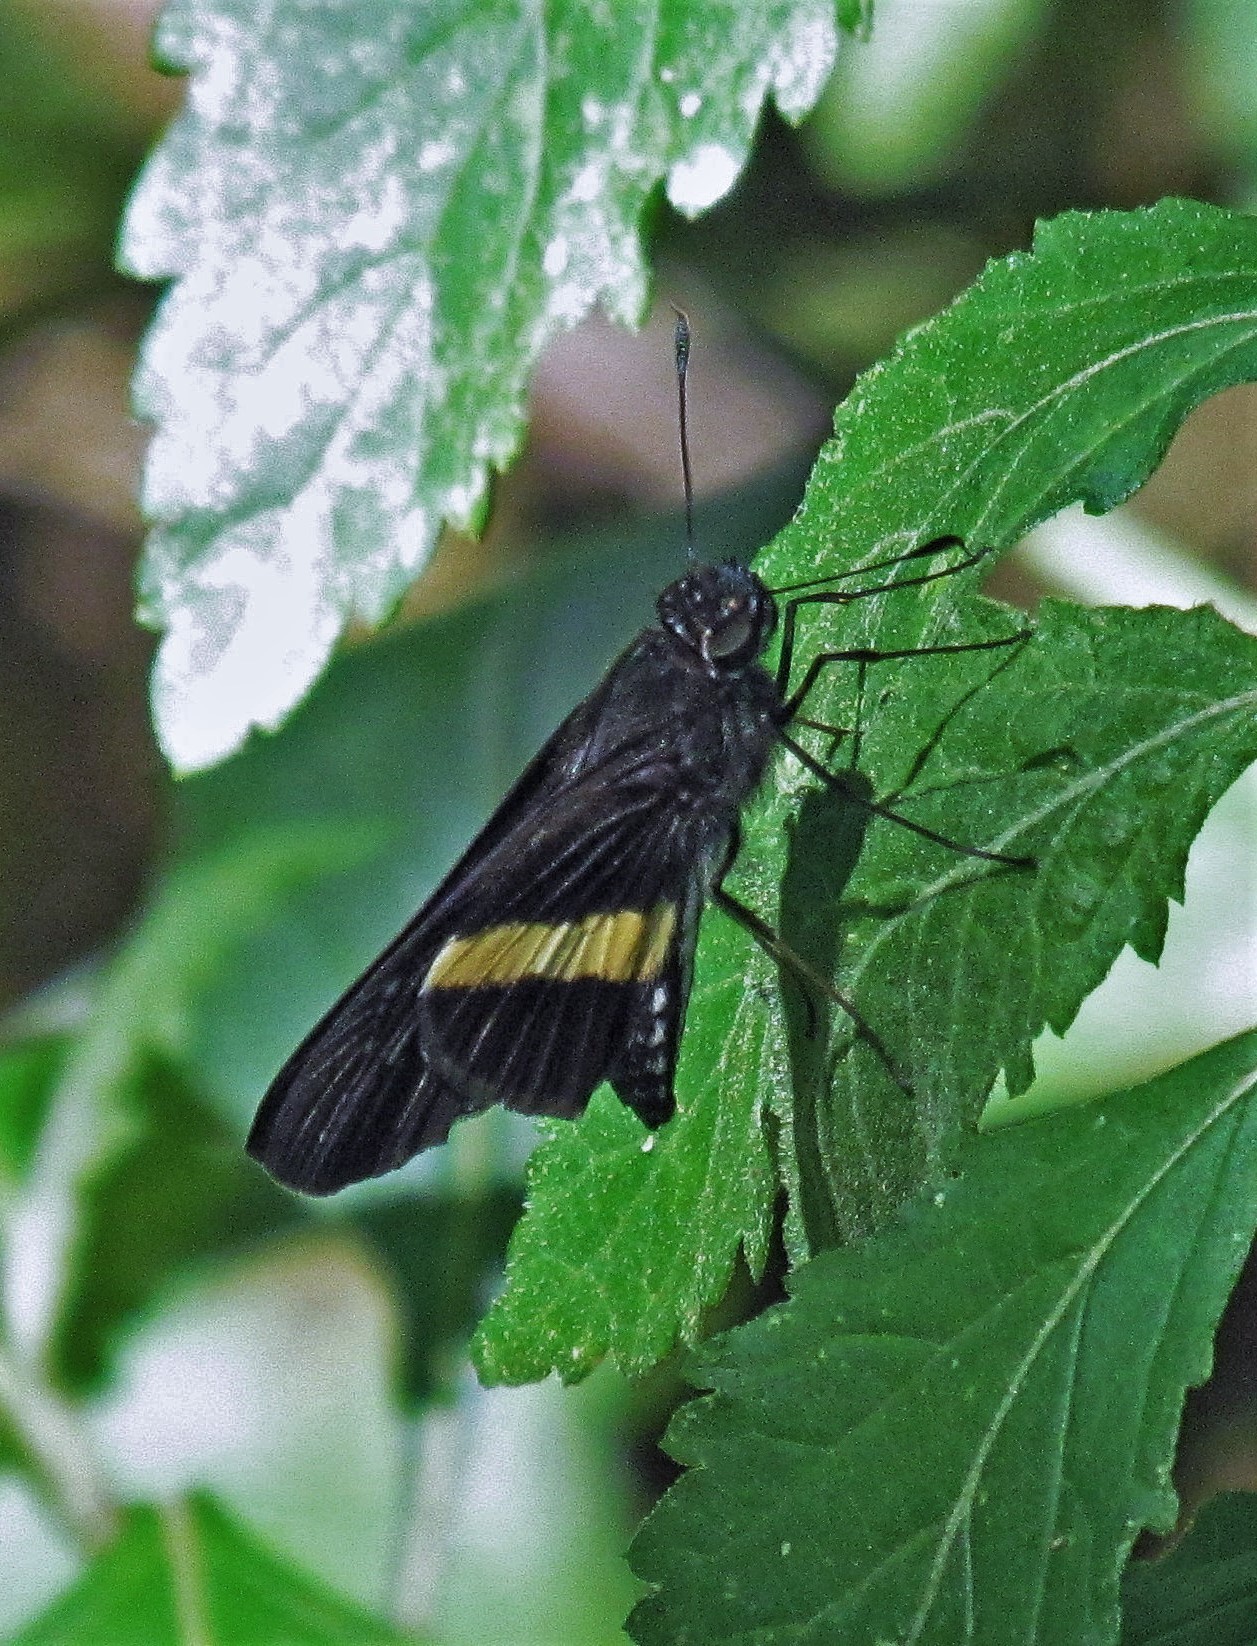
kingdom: Animalia
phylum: Arthropoda
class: Insecta
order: Lepidoptera
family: Hesperiidae
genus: Zenis
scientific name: Zenis jebus
